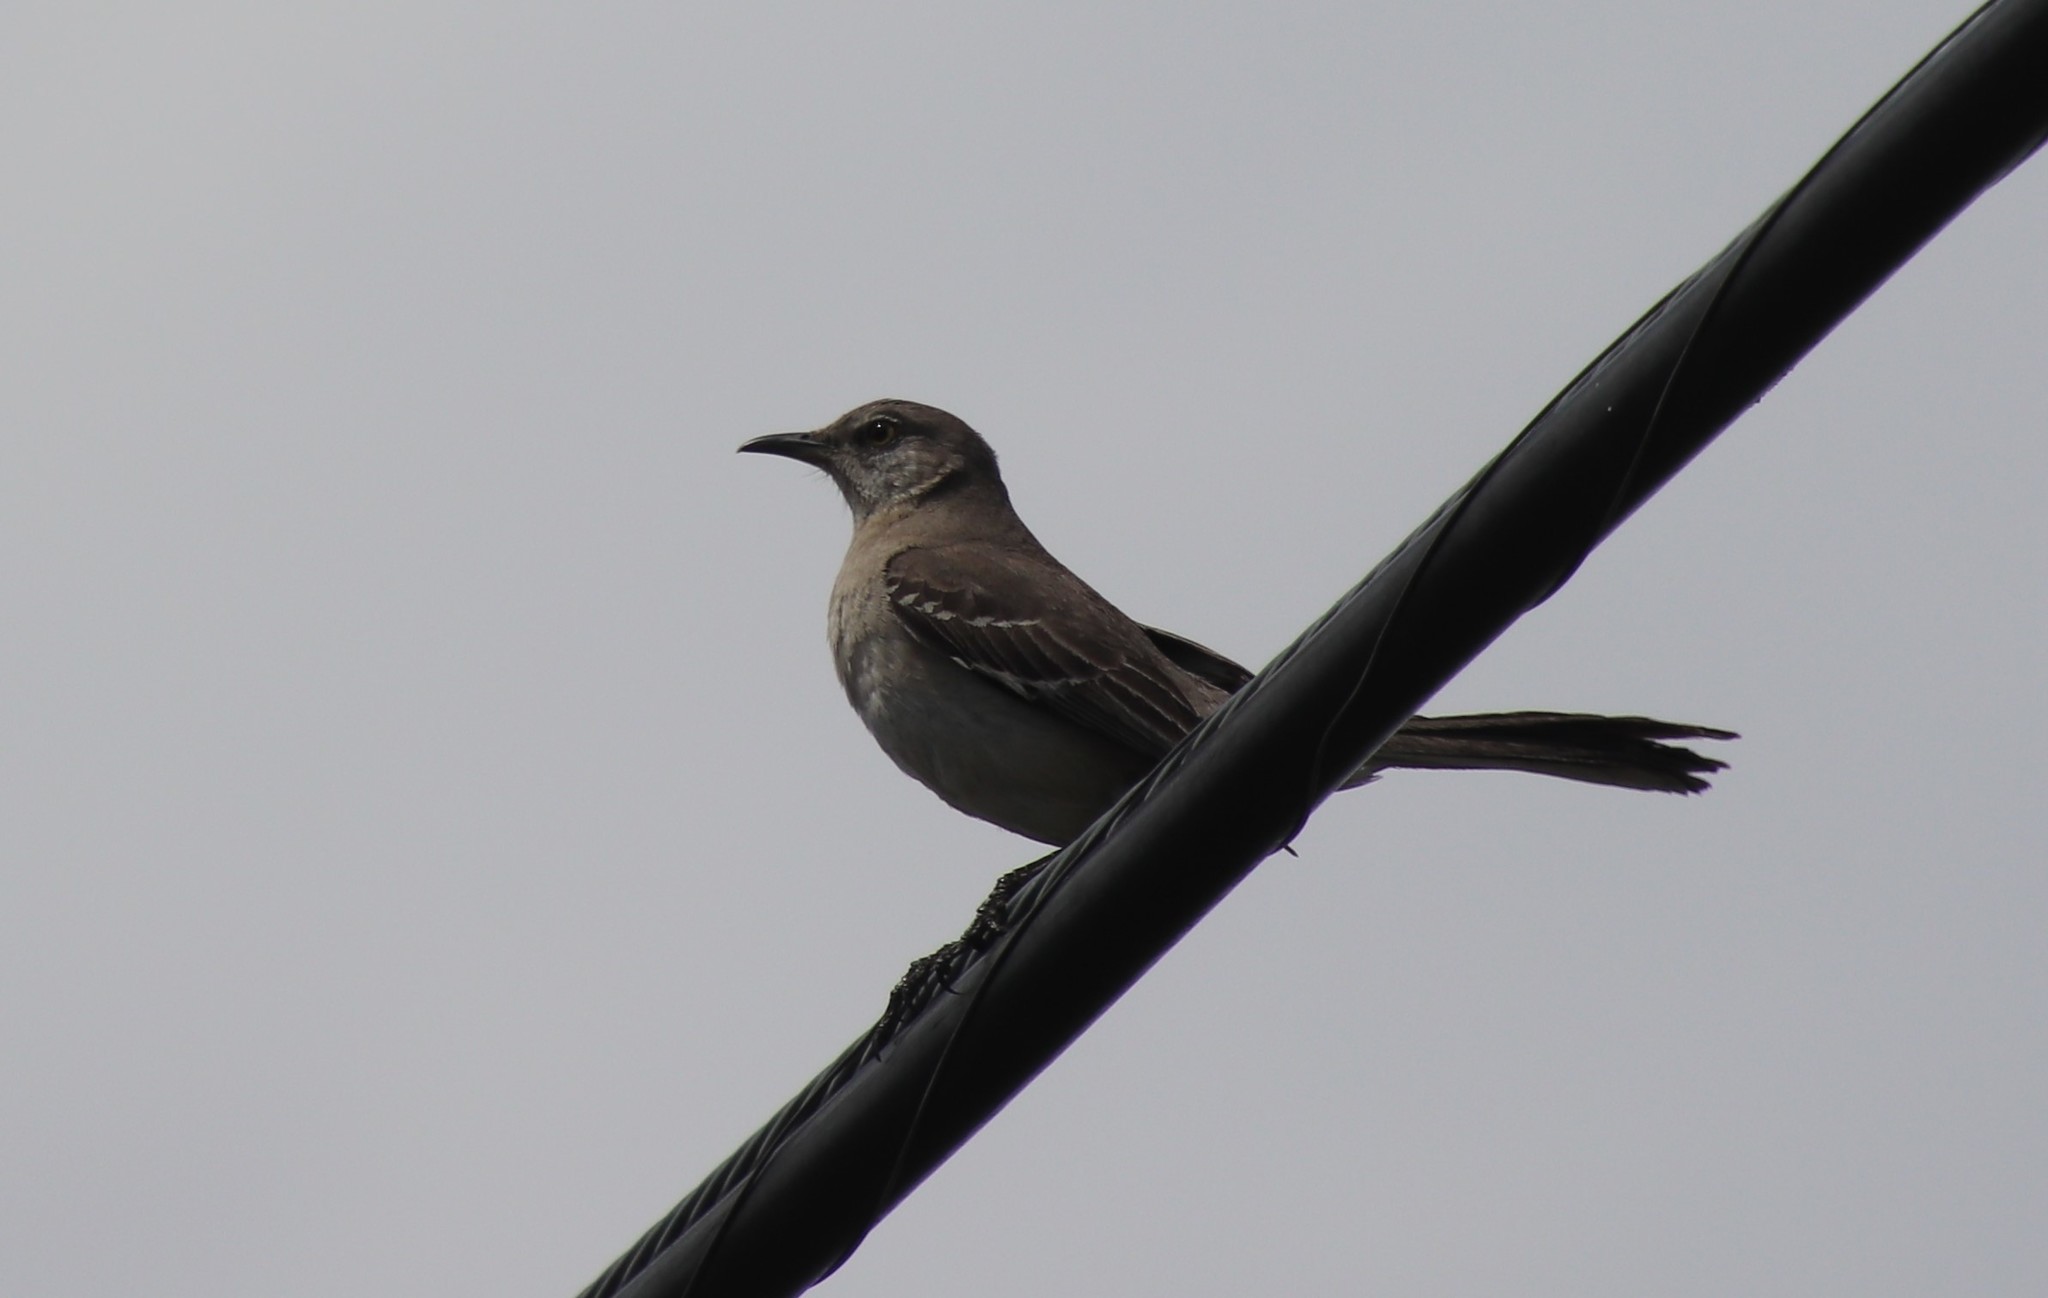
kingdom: Animalia
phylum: Chordata
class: Aves
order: Passeriformes
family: Mimidae
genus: Mimus
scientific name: Mimus polyglottos
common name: Northern mockingbird
